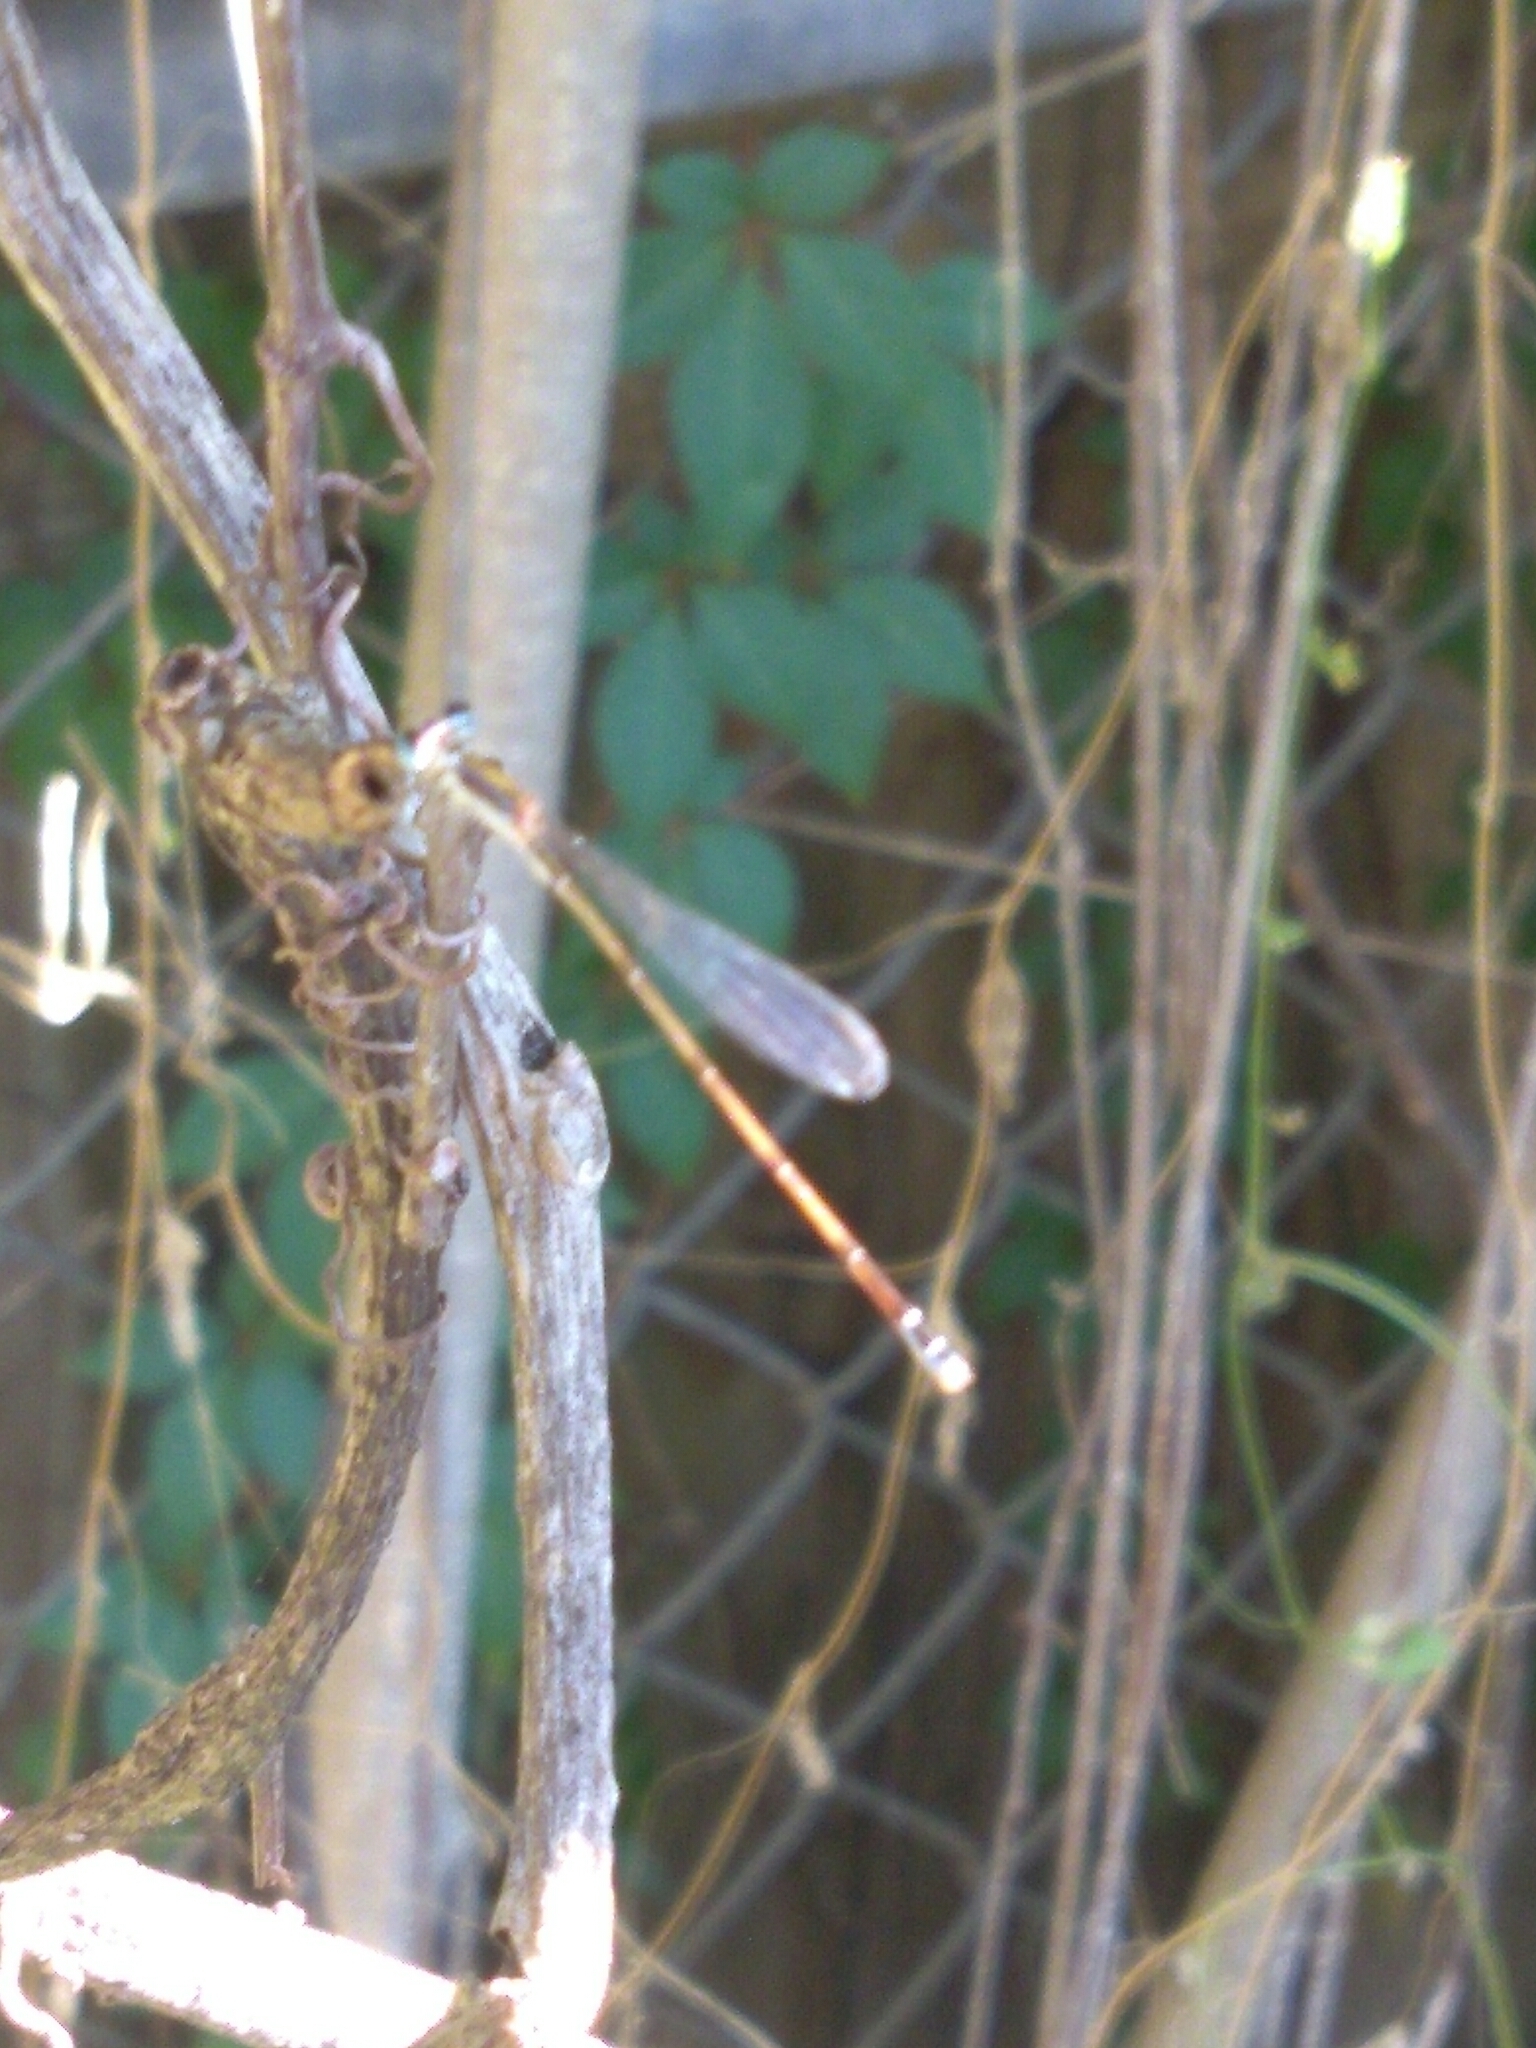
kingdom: Animalia
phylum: Arthropoda
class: Insecta
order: Odonata
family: Coenagrionidae
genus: Nehalennia
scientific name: Nehalennia pallidula
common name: Everglades sprite
